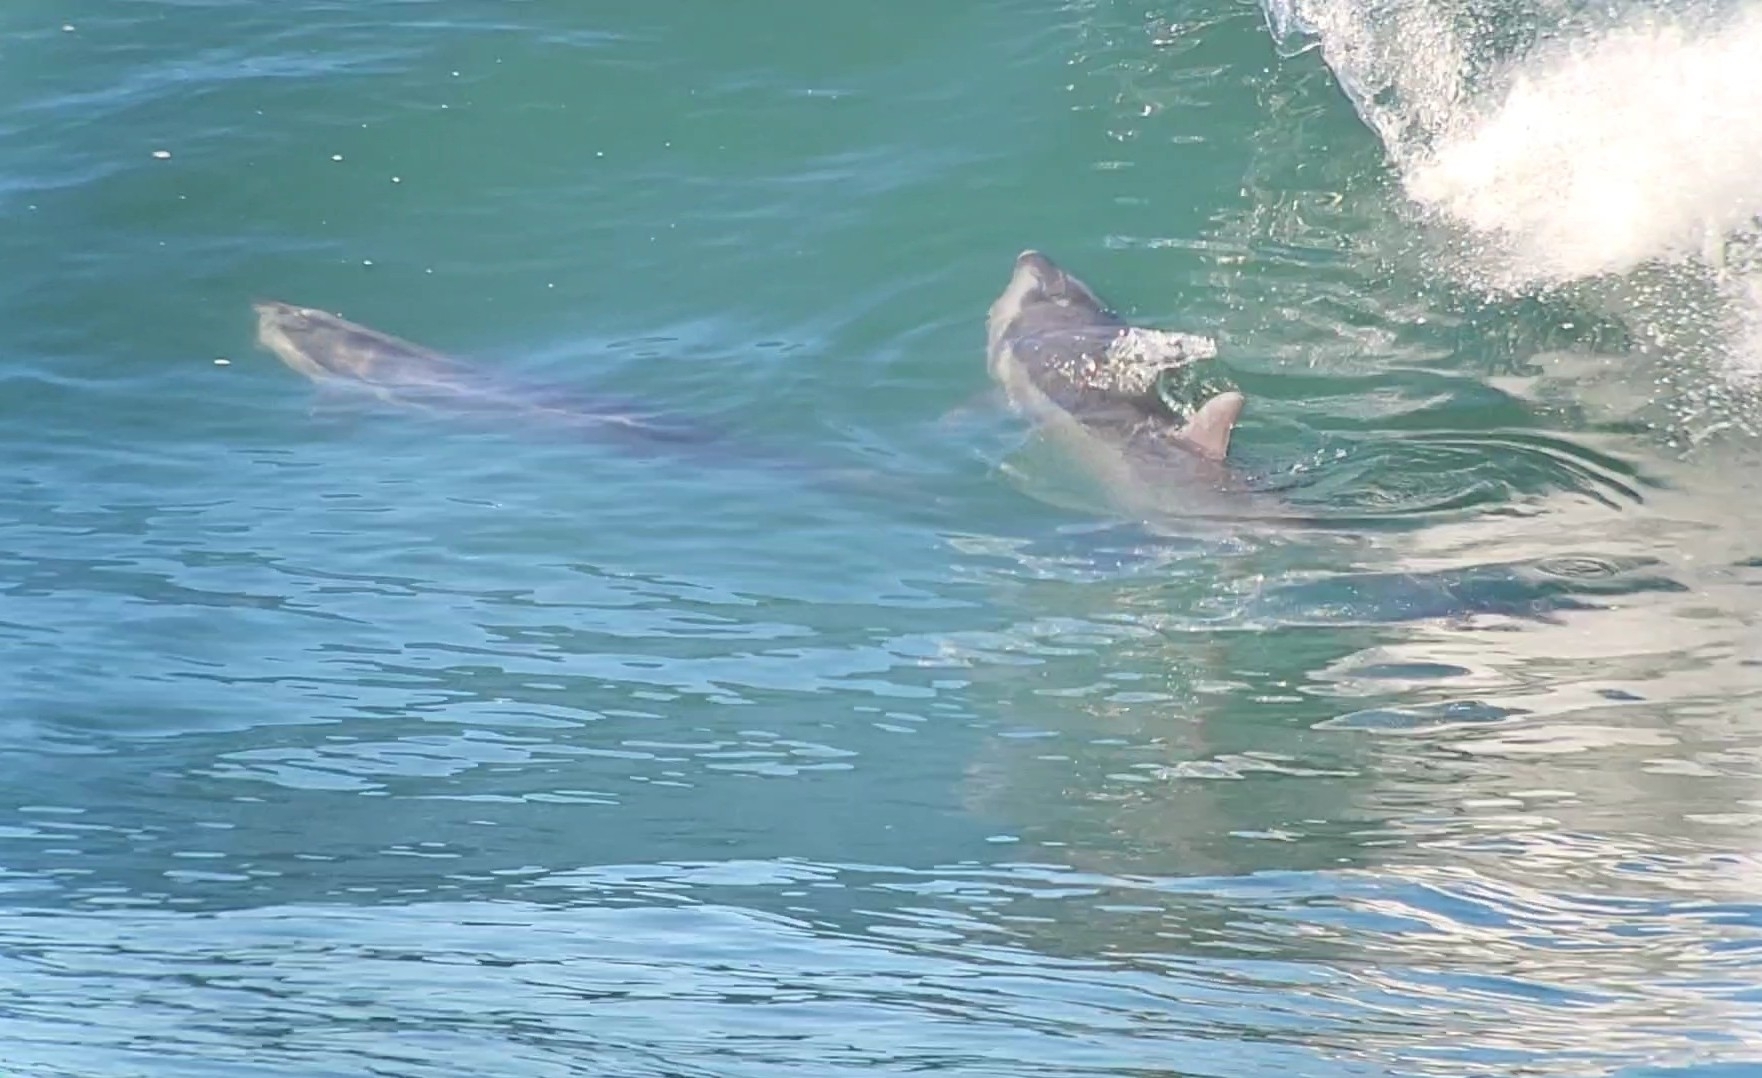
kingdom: Animalia
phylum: Chordata
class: Mammalia
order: Cetacea
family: Delphinidae
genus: Tursiops
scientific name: Tursiops truncatus
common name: Bottlenose dolphin
